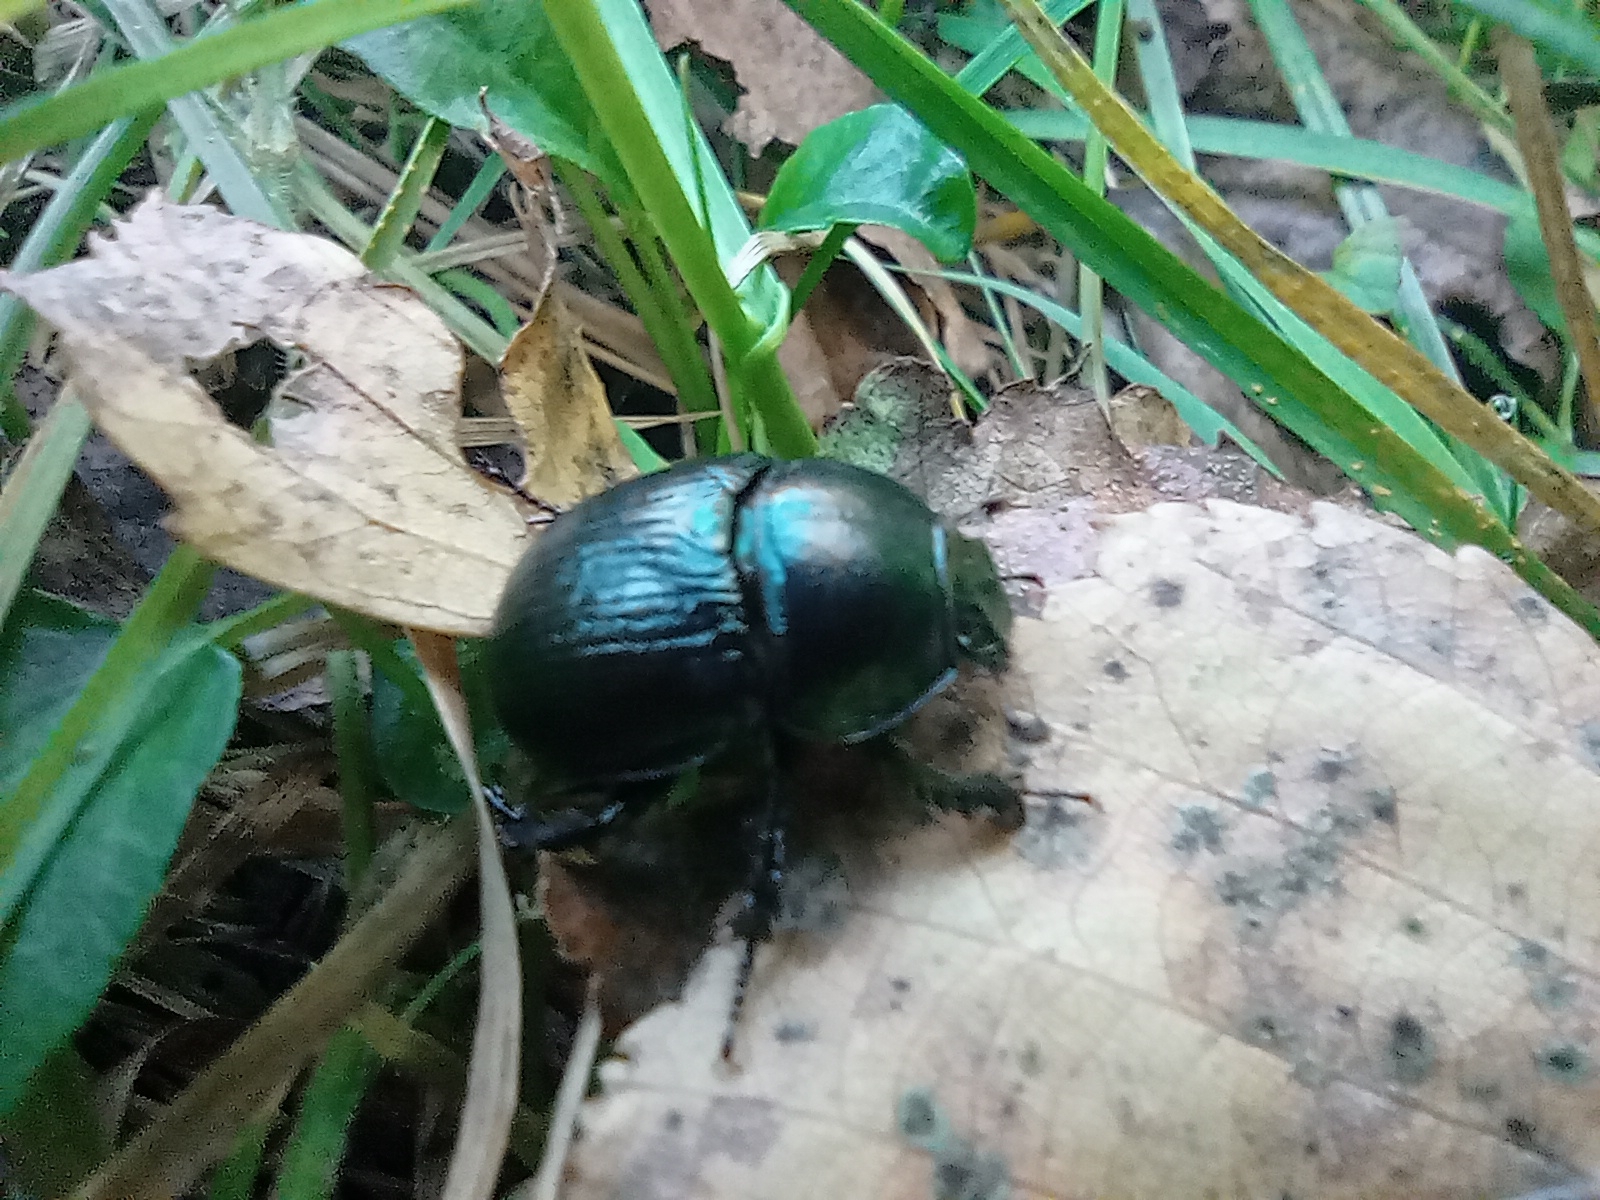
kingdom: Animalia
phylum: Arthropoda
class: Insecta
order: Coleoptera
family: Geotrupidae
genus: Anoplotrupes
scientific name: Anoplotrupes stercorosus
